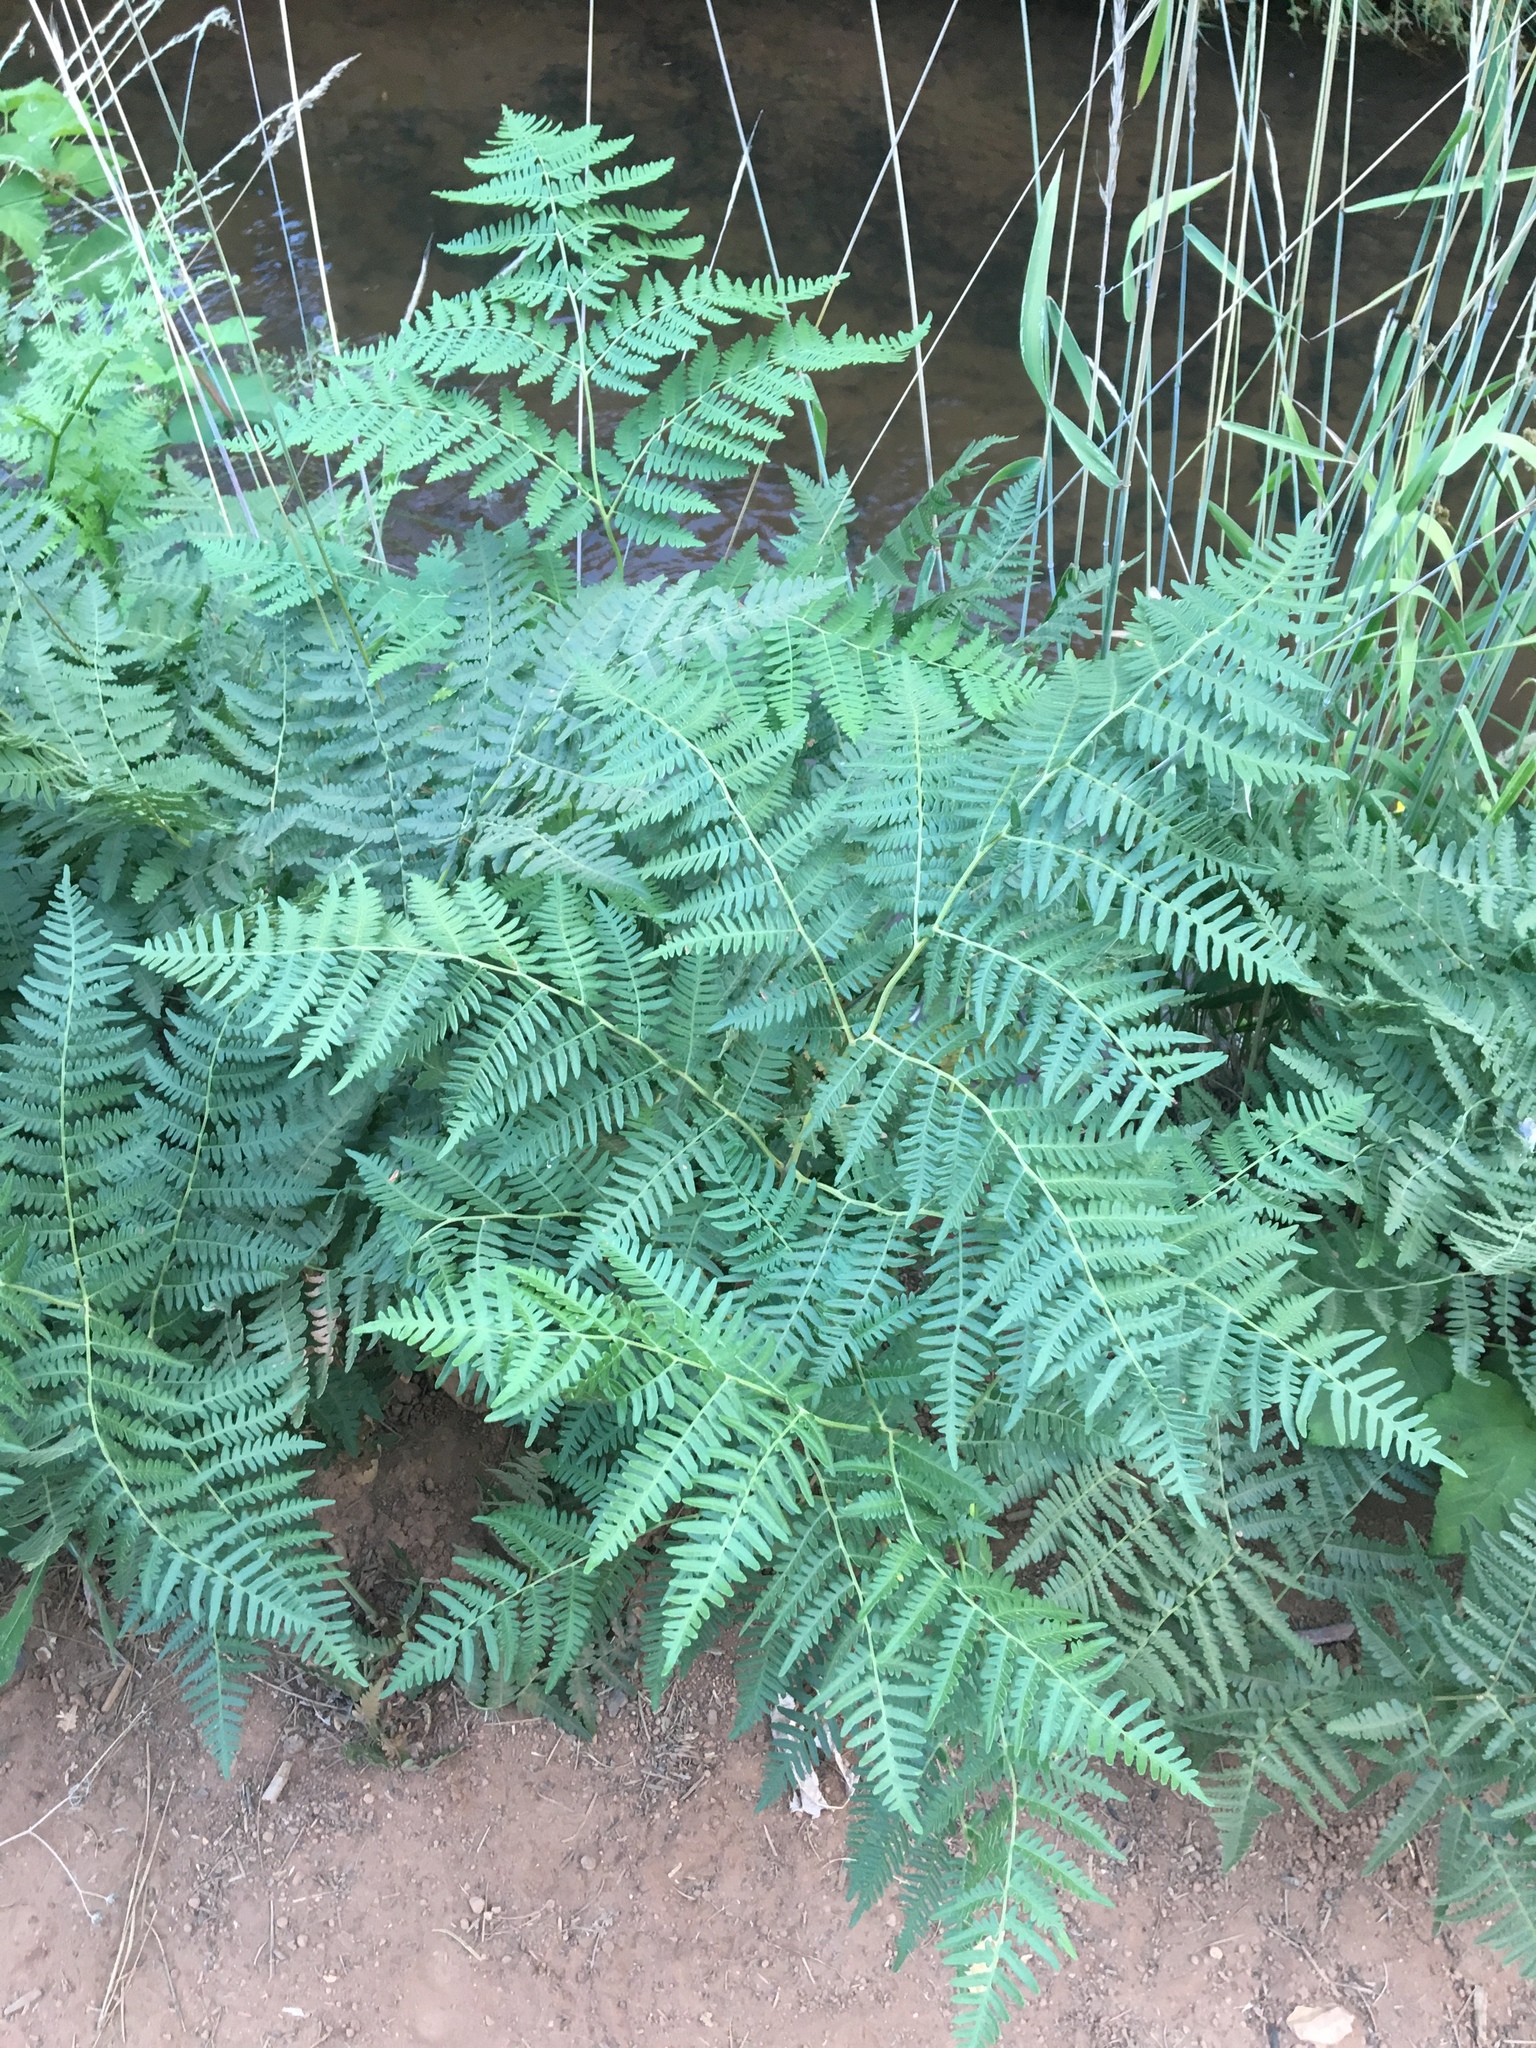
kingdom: Plantae
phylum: Tracheophyta
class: Polypodiopsida
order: Polypodiales
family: Dennstaedtiaceae
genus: Pteridium
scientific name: Pteridium aquilinum
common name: Bracken
